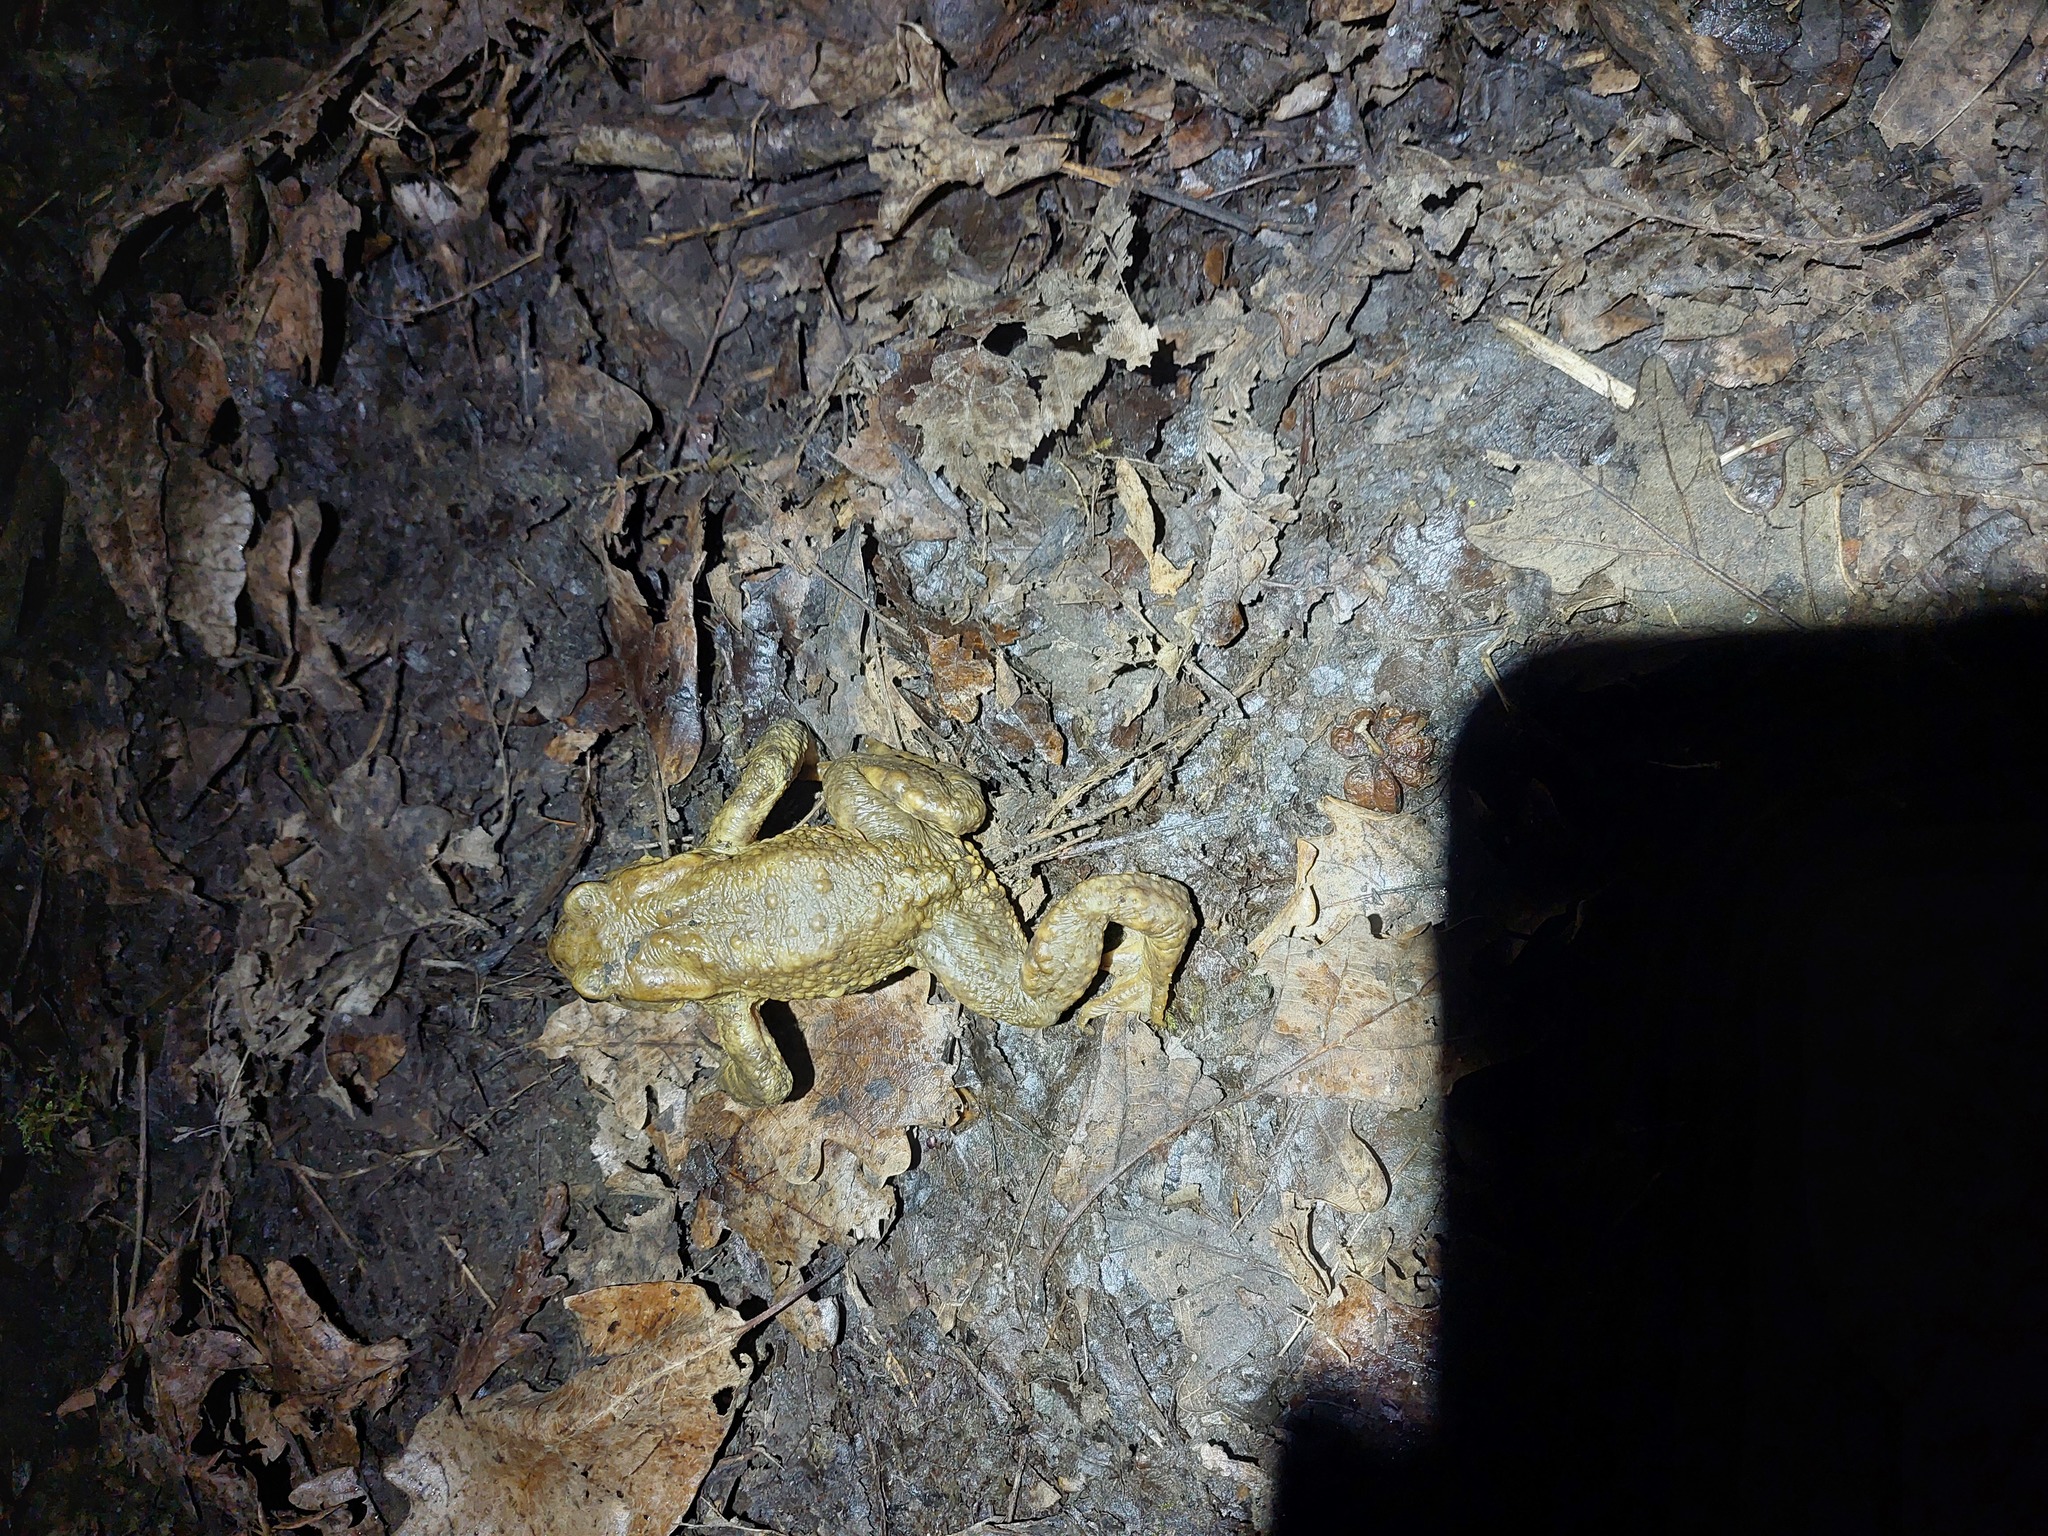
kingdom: Animalia
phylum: Chordata
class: Amphibia
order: Anura
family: Bufonidae
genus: Bufo
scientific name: Bufo spinosus
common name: Western common toad
